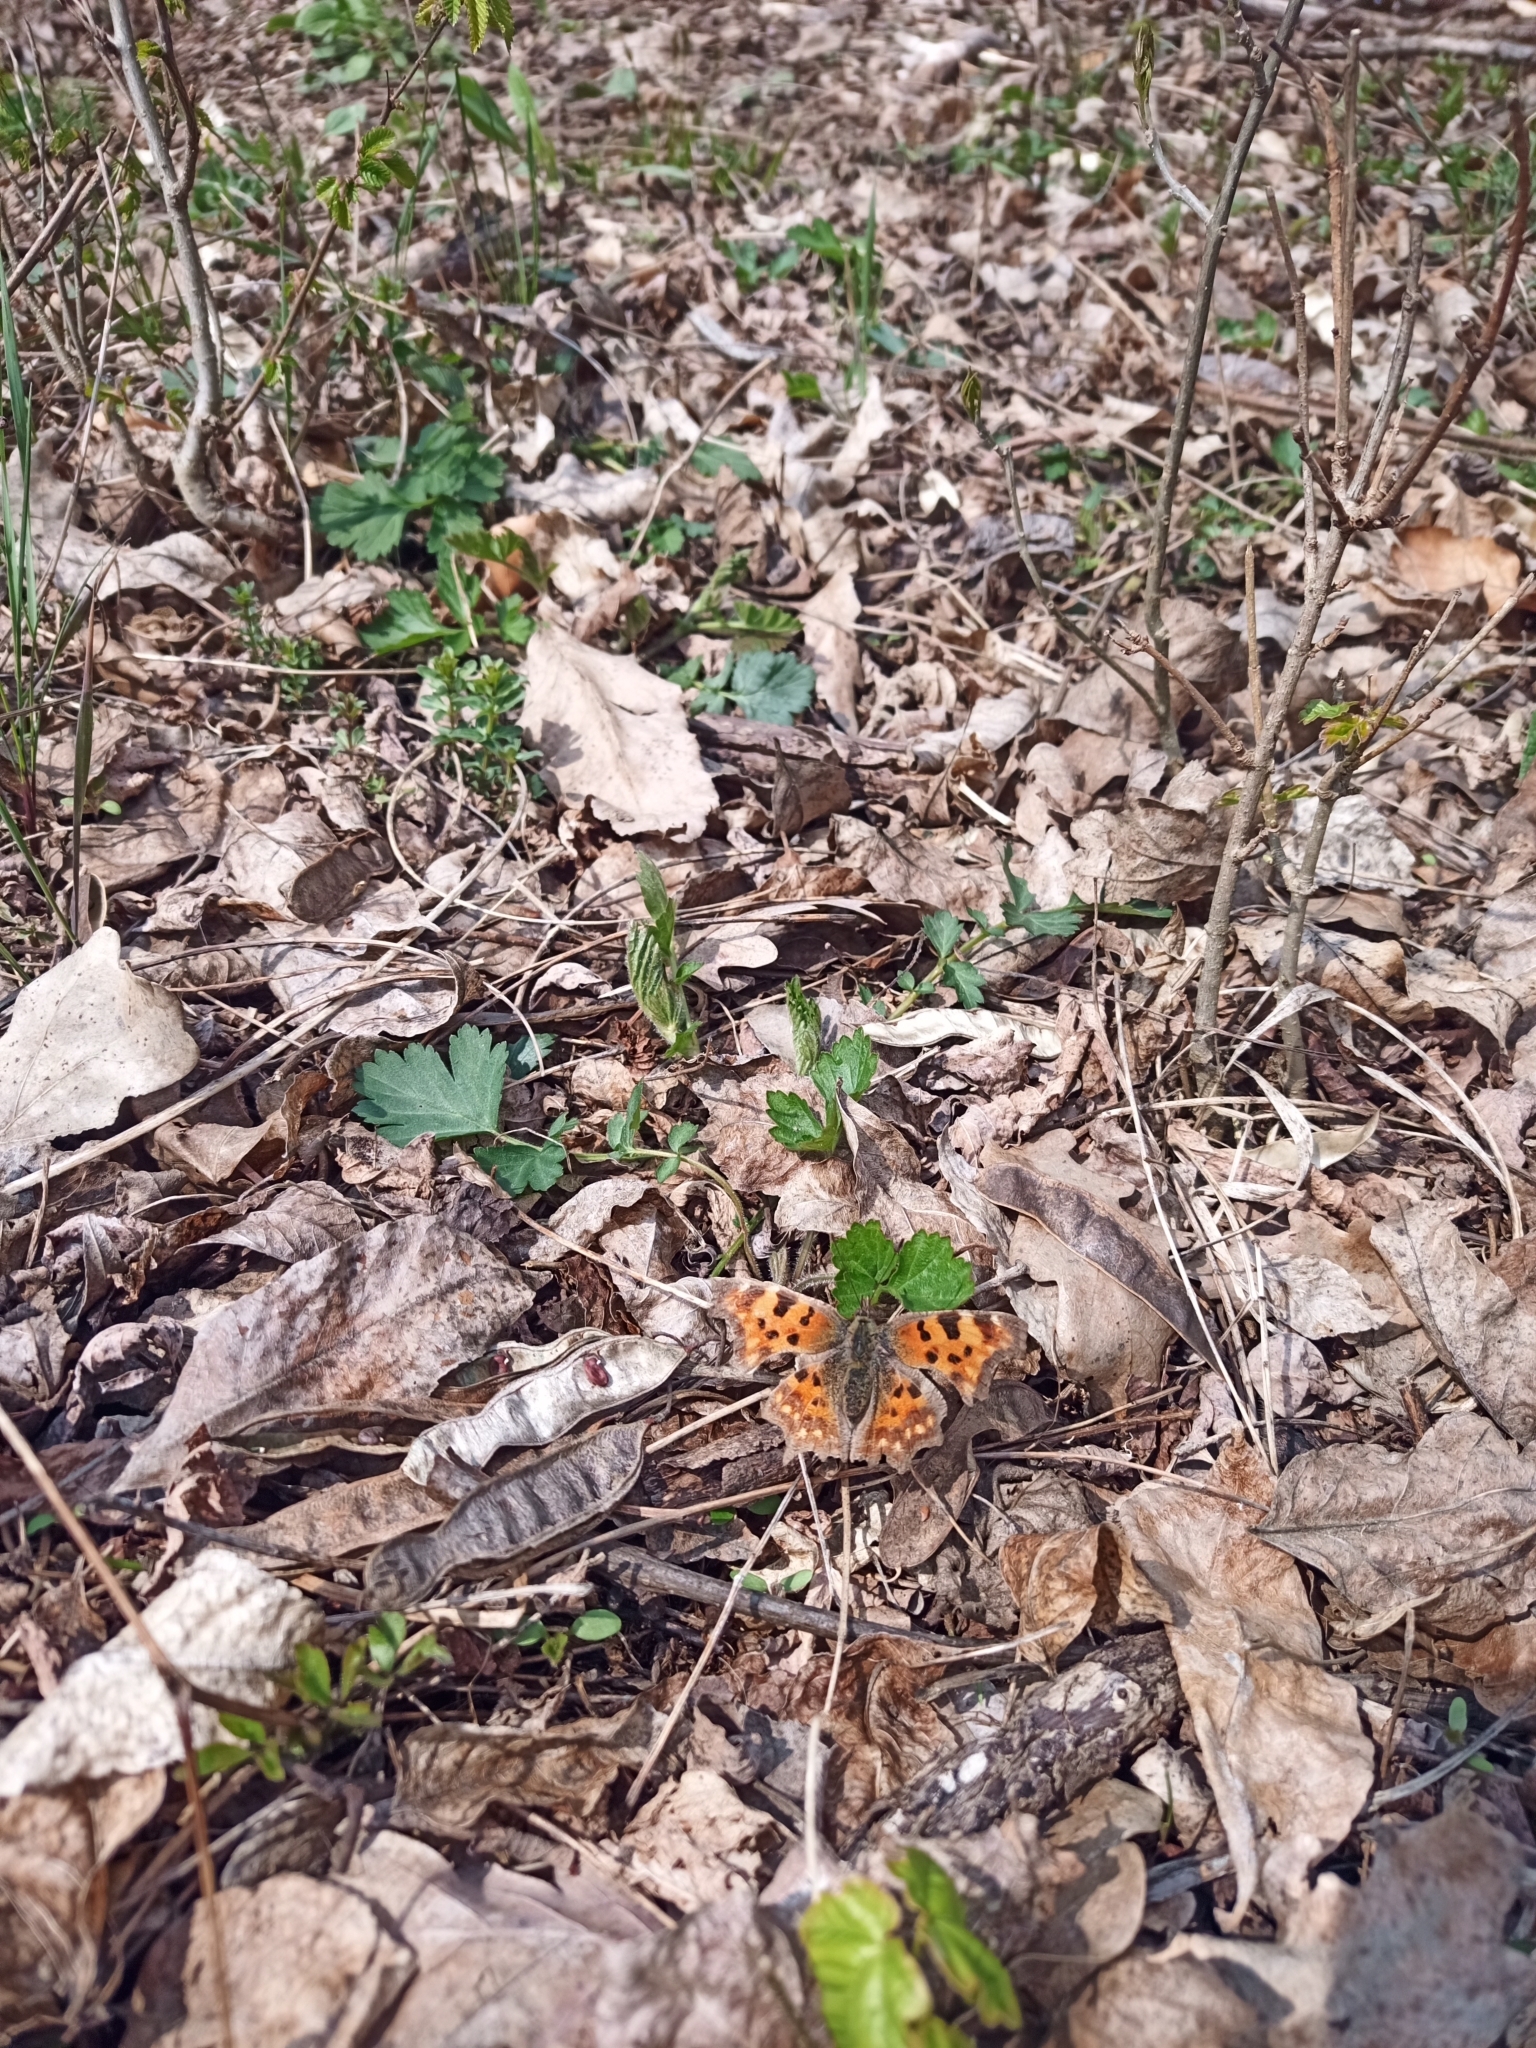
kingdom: Animalia
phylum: Arthropoda
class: Insecta
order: Lepidoptera
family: Nymphalidae
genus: Polygonia
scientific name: Polygonia c-album
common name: Comma
